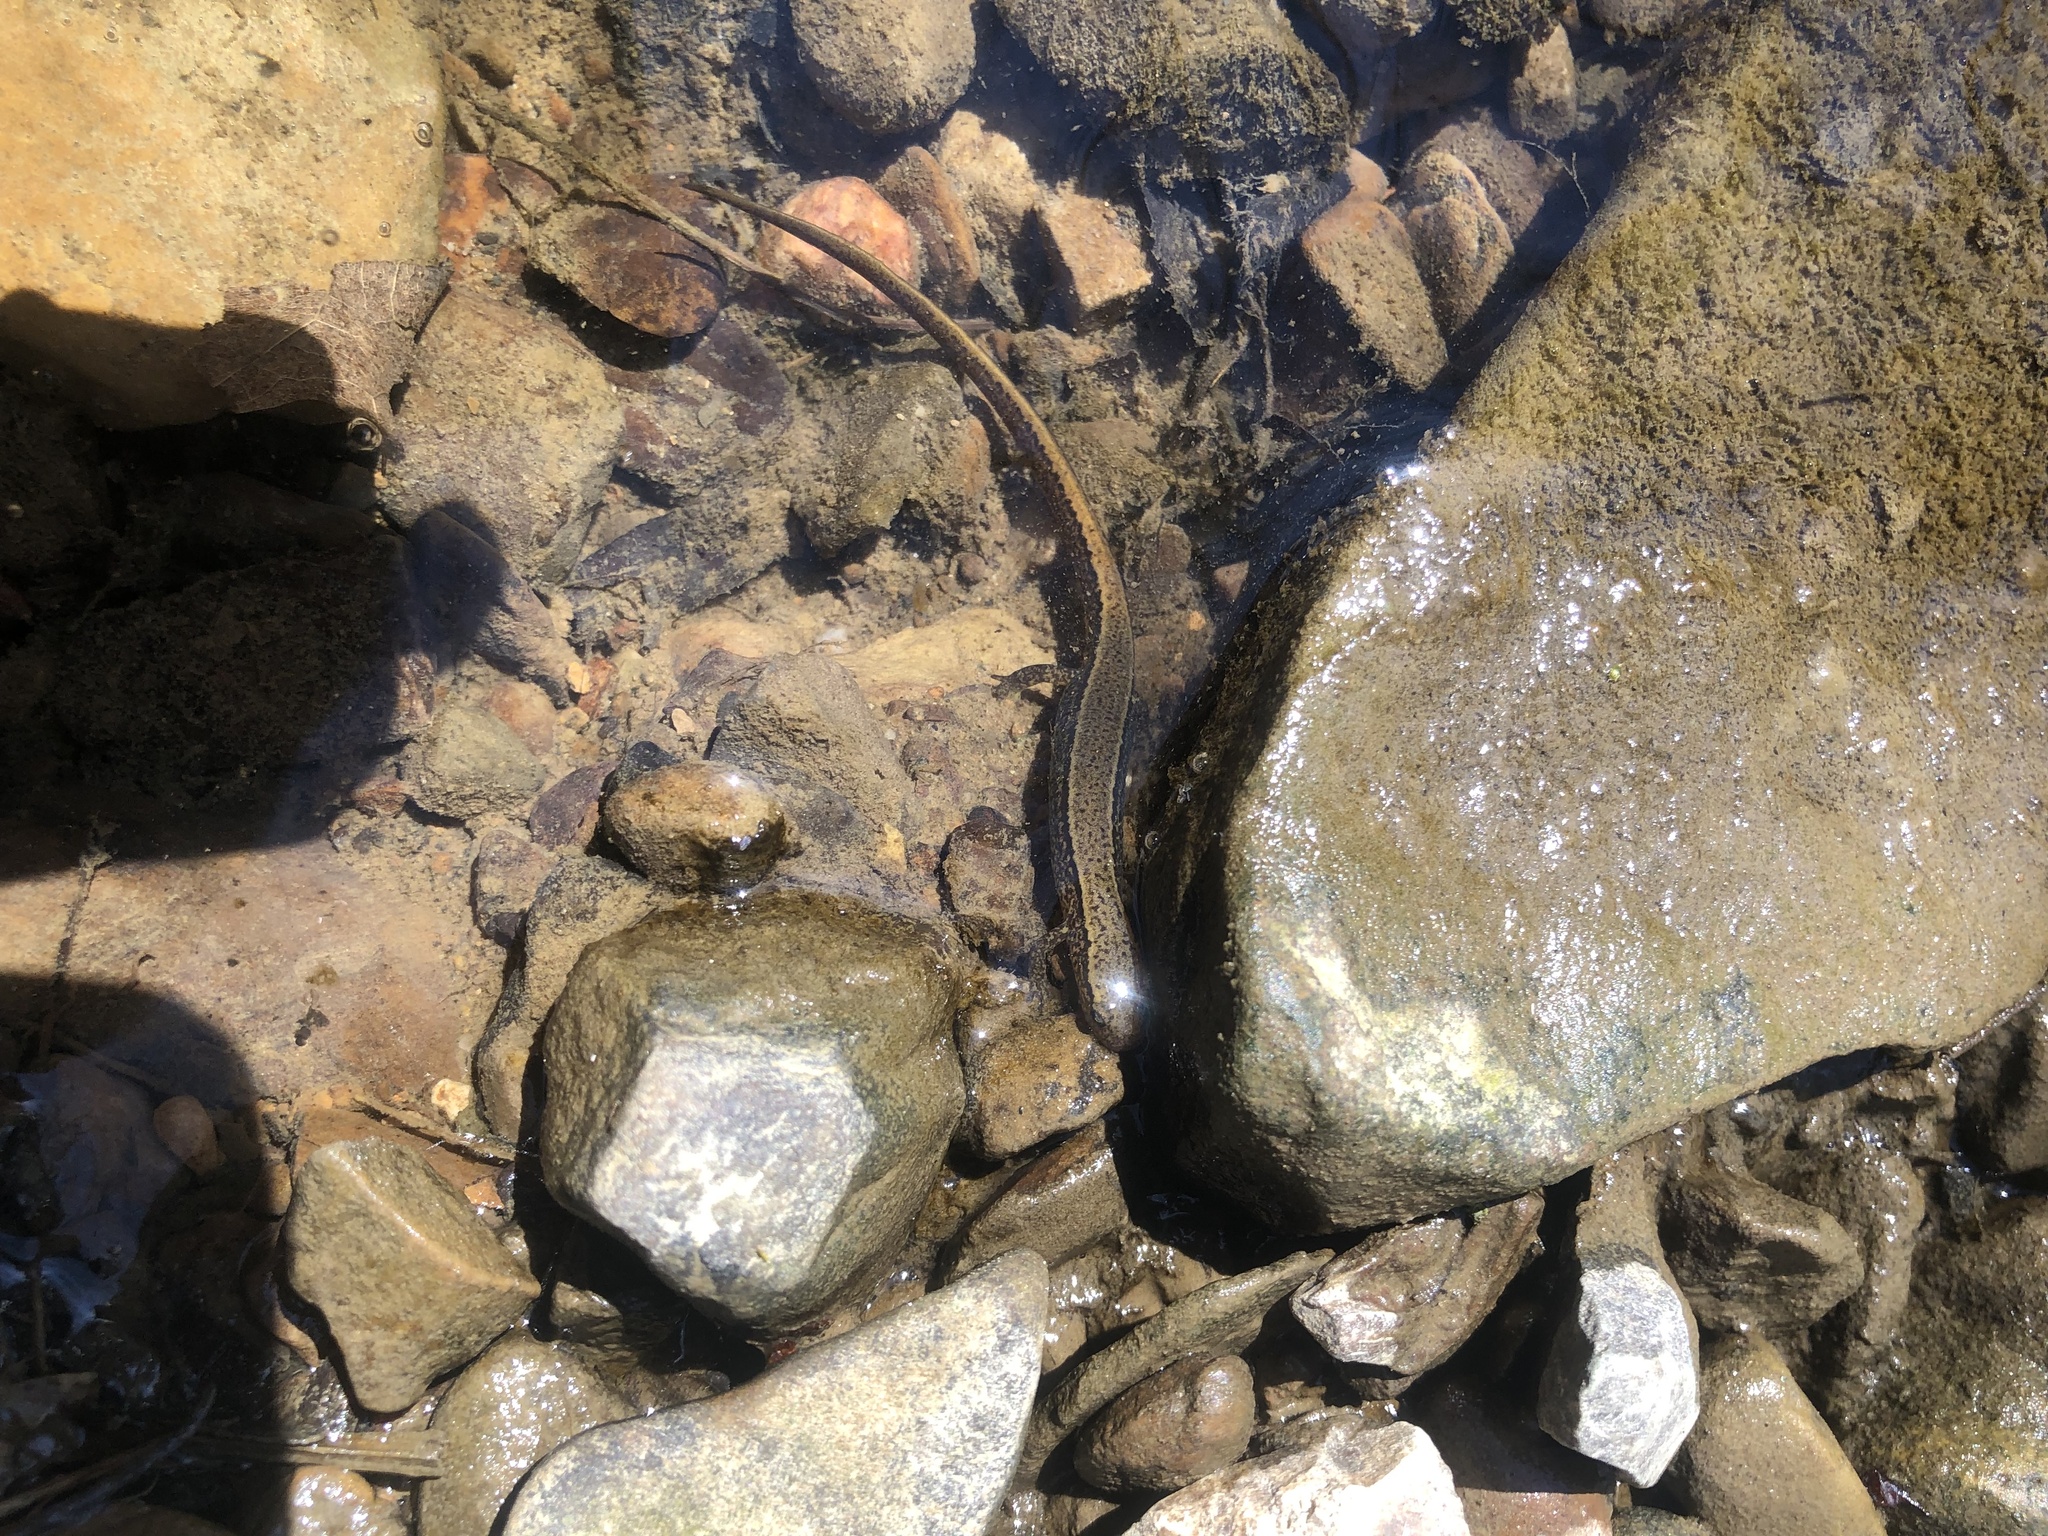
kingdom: Animalia
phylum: Chordata
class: Amphibia
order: Caudata
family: Plethodontidae
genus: Eurycea
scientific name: Eurycea cirrigera
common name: Southern two-lined salamander
